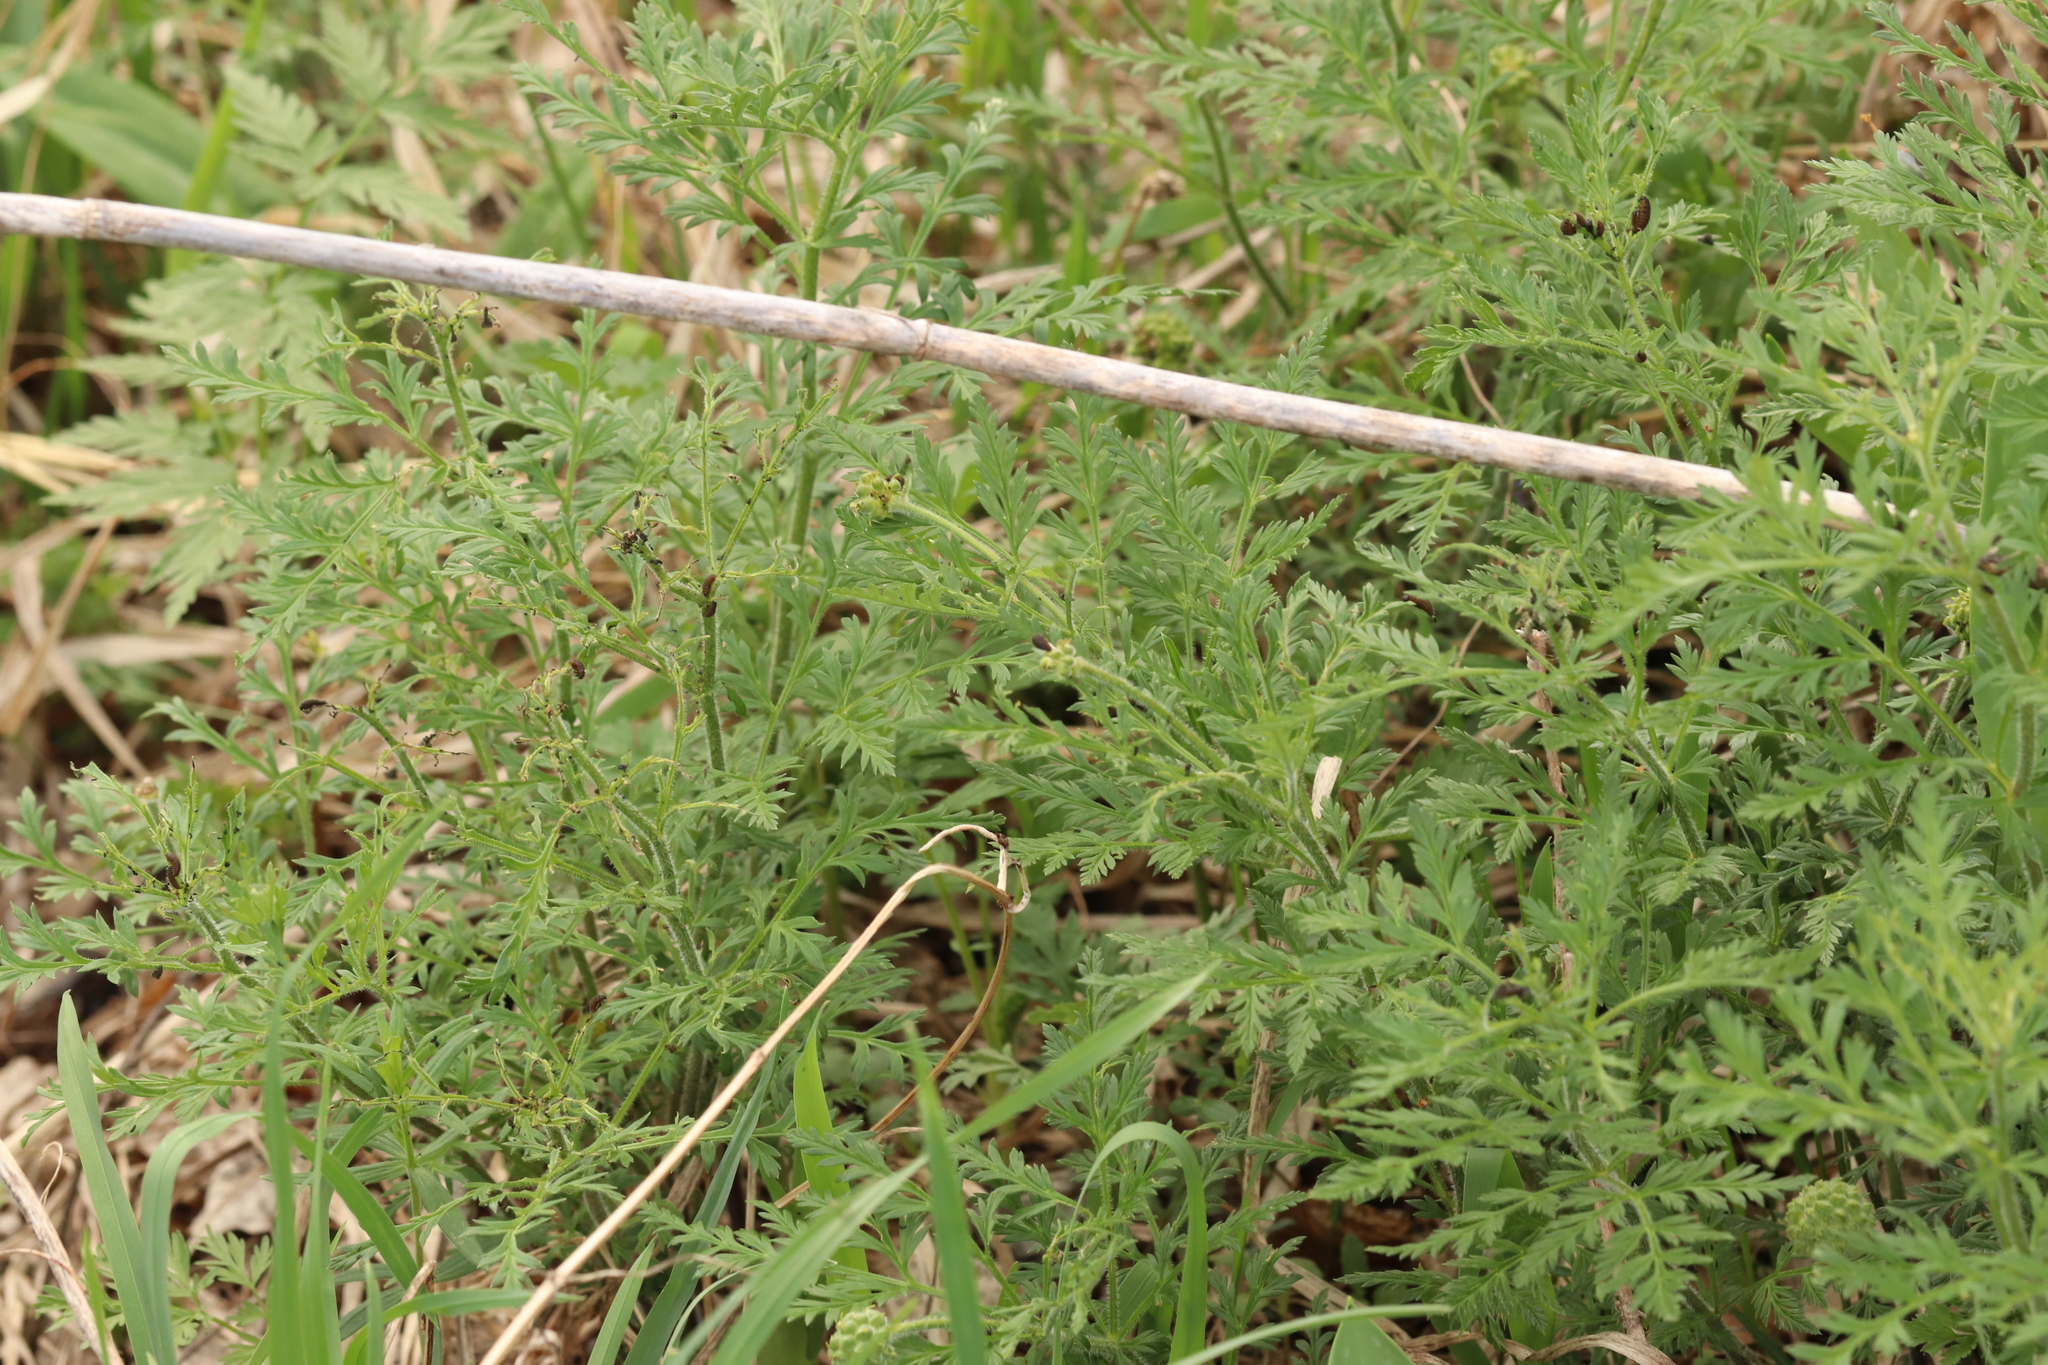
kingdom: Plantae
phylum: Tracheophyta
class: Magnoliopsida
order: Ranunculales
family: Ranunculaceae
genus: Adonis
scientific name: Adonis villosa
